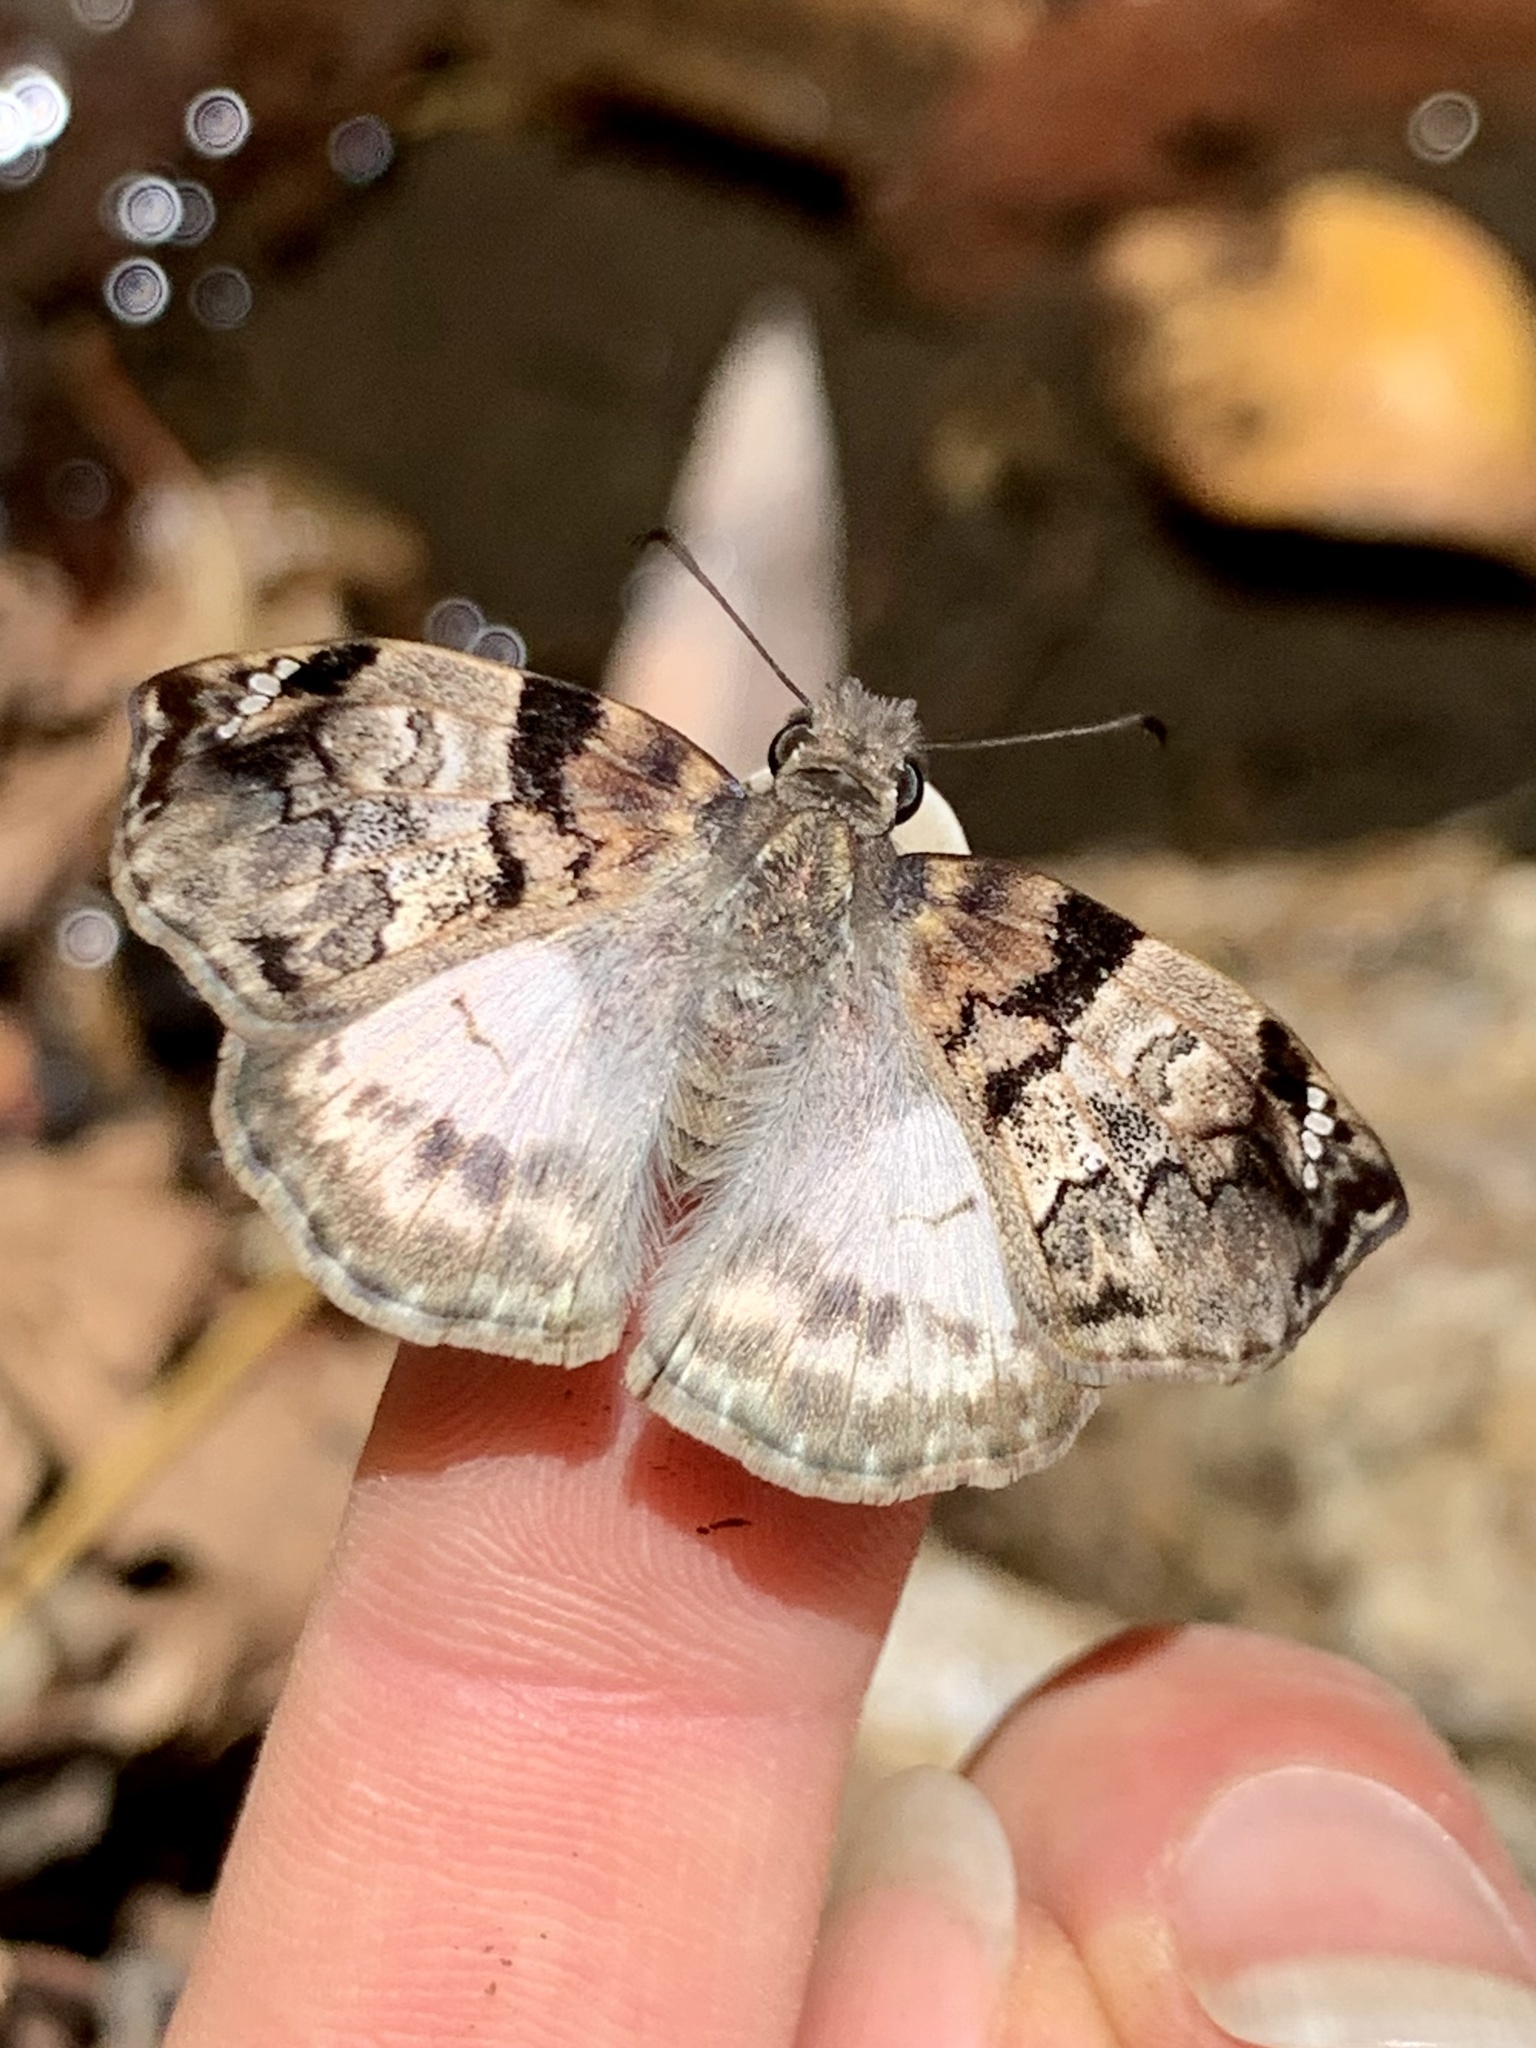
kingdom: Animalia
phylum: Arthropoda
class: Insecta
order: Lepidoptera
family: Hesperiidae
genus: Mylon
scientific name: Mylon lassia
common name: Bold mylon
